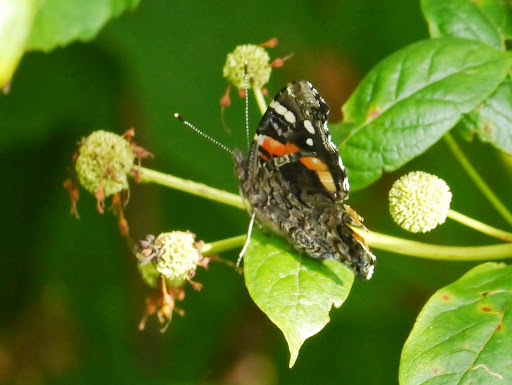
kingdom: Animalia
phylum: Arthropoda
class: Insecta
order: Lepidoptera
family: Nymphalidae
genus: Vanessa
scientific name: Vanessa atalanta
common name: Red admiral
